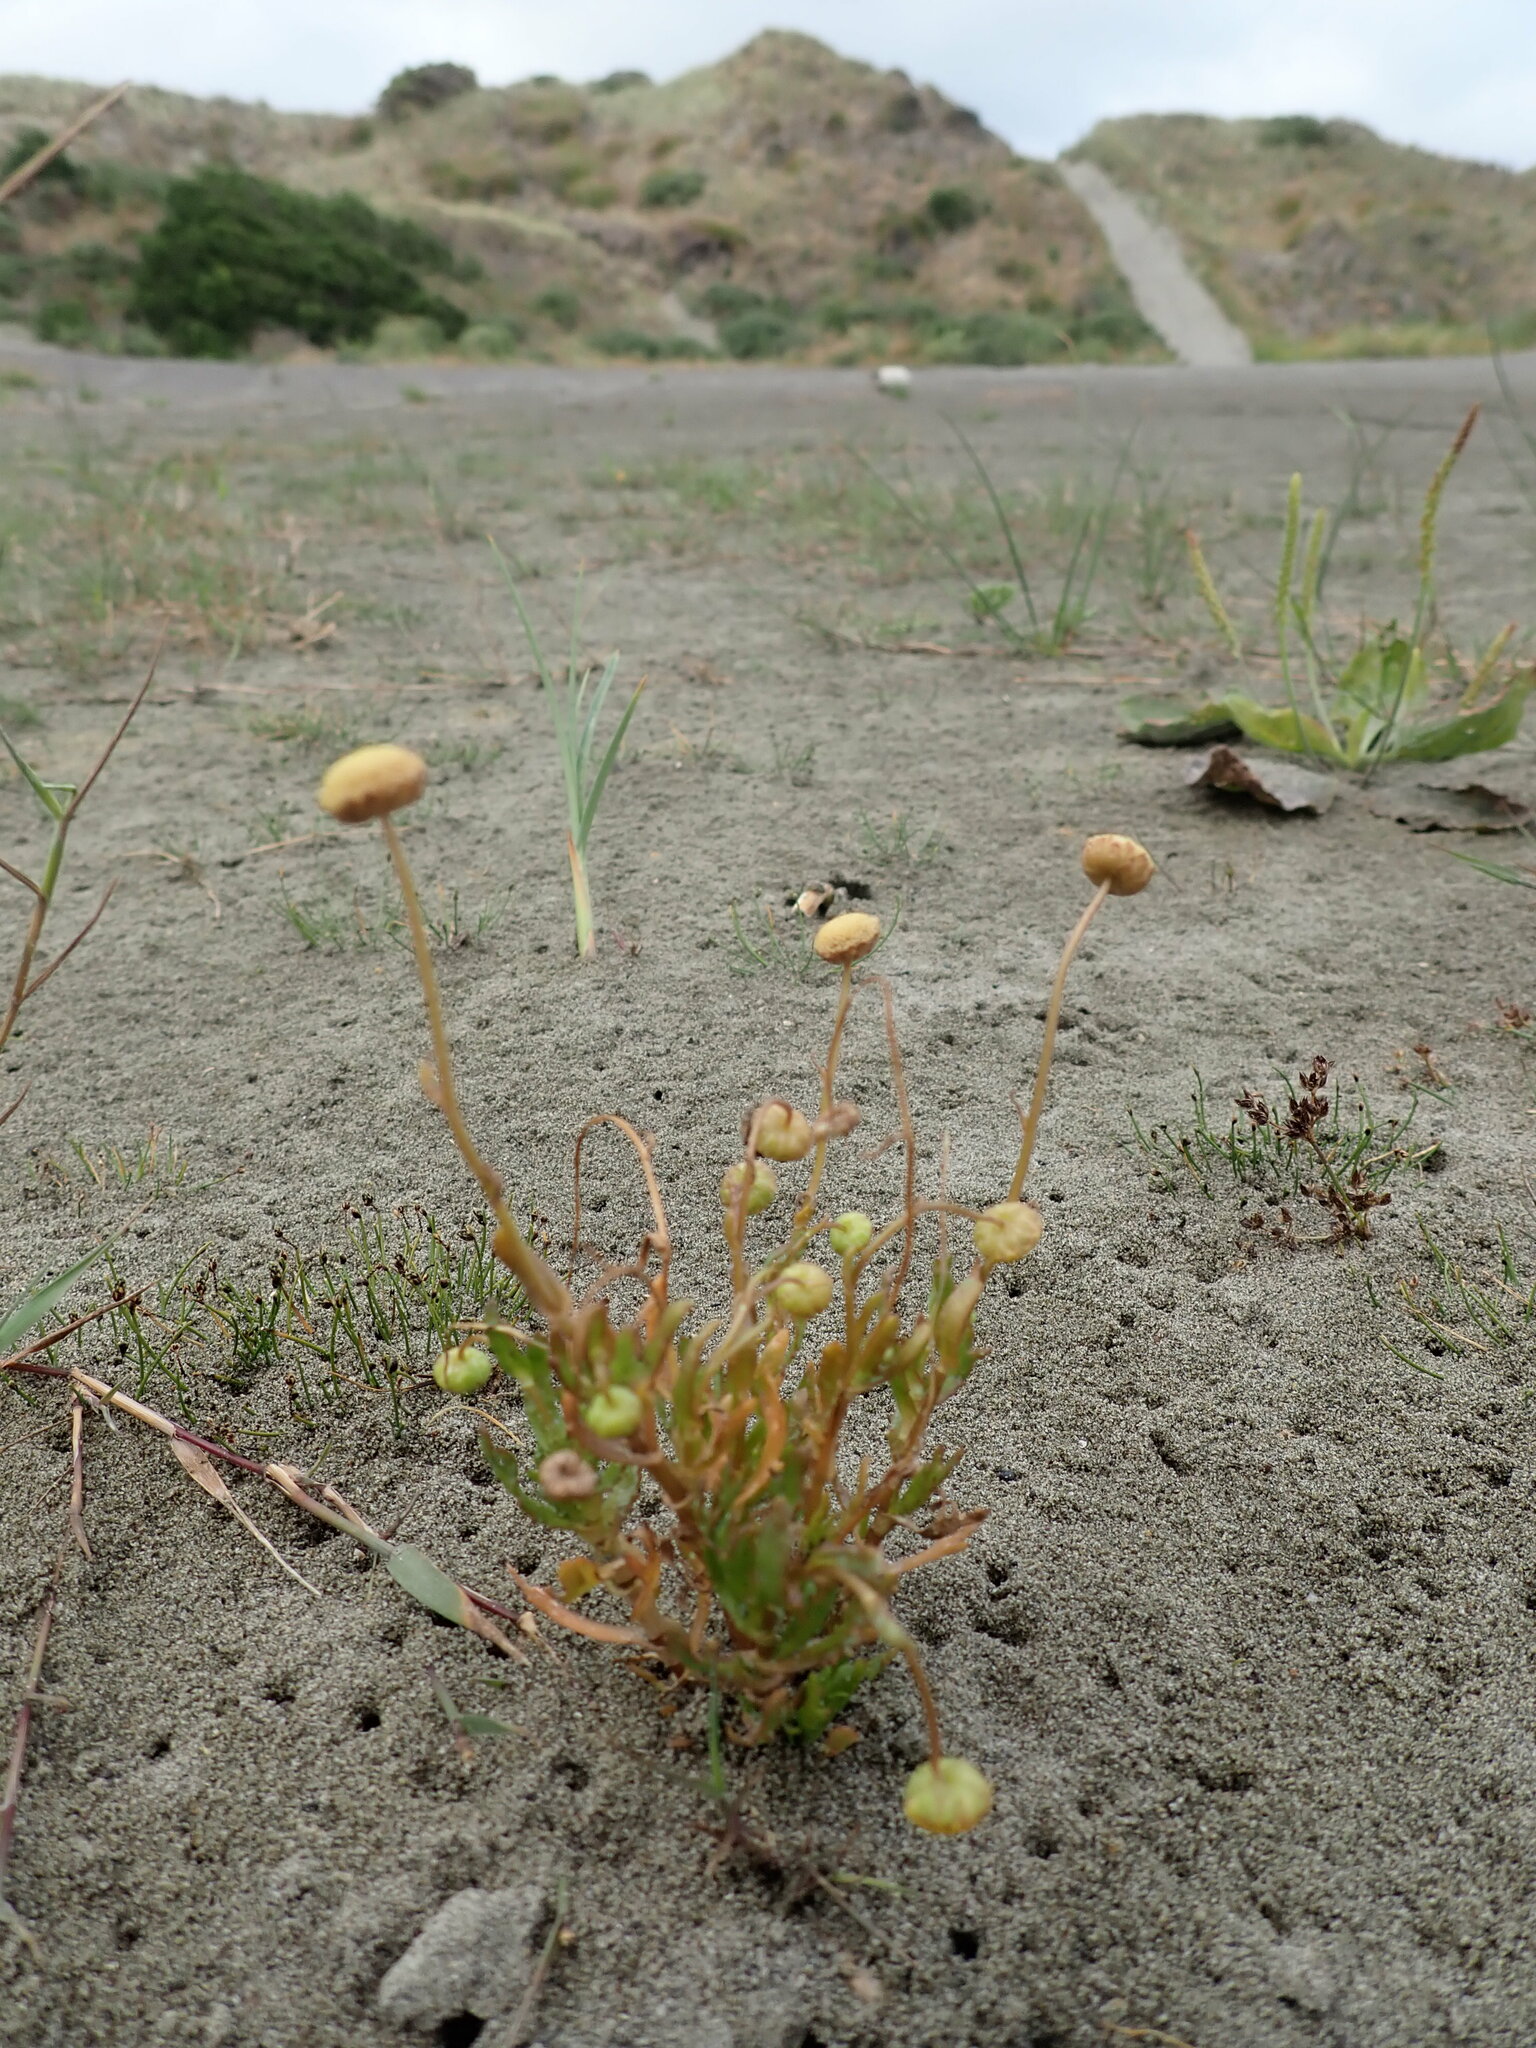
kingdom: Plantae
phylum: Tracheophyta
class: Magnoliopsida
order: Asterales
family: Asteraceae
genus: Cotula
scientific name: Cotula coronopifolia
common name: Buttonweed
